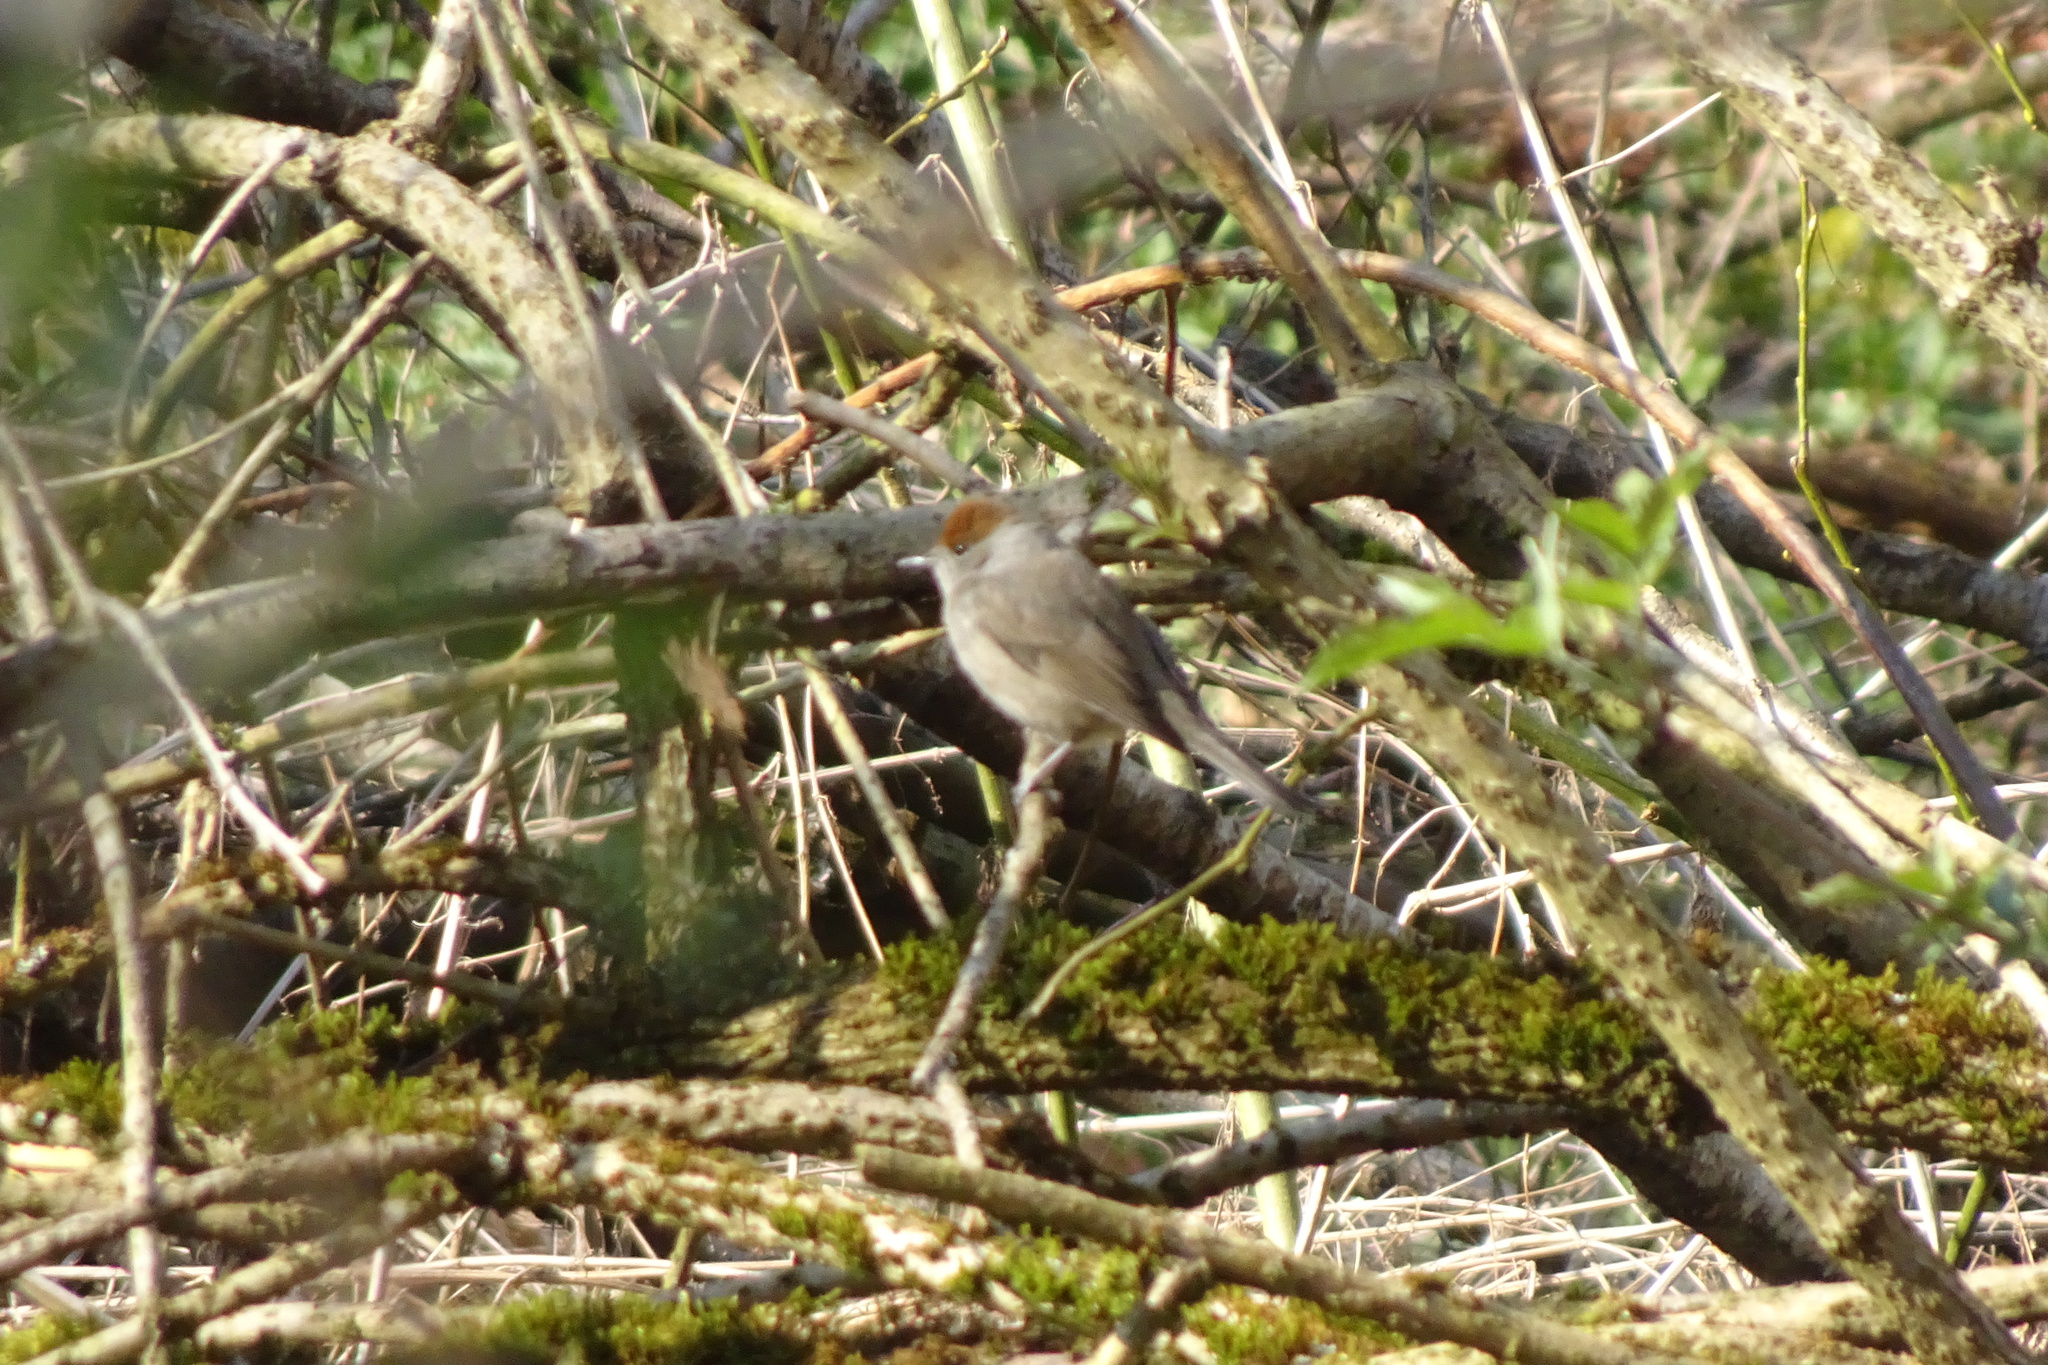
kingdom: Animalia
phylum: Chordata
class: Aves
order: Passeriformes
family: Sylviidae
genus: Sylvia
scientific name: Sylvia atricapilla
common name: Eurasian blackcap
